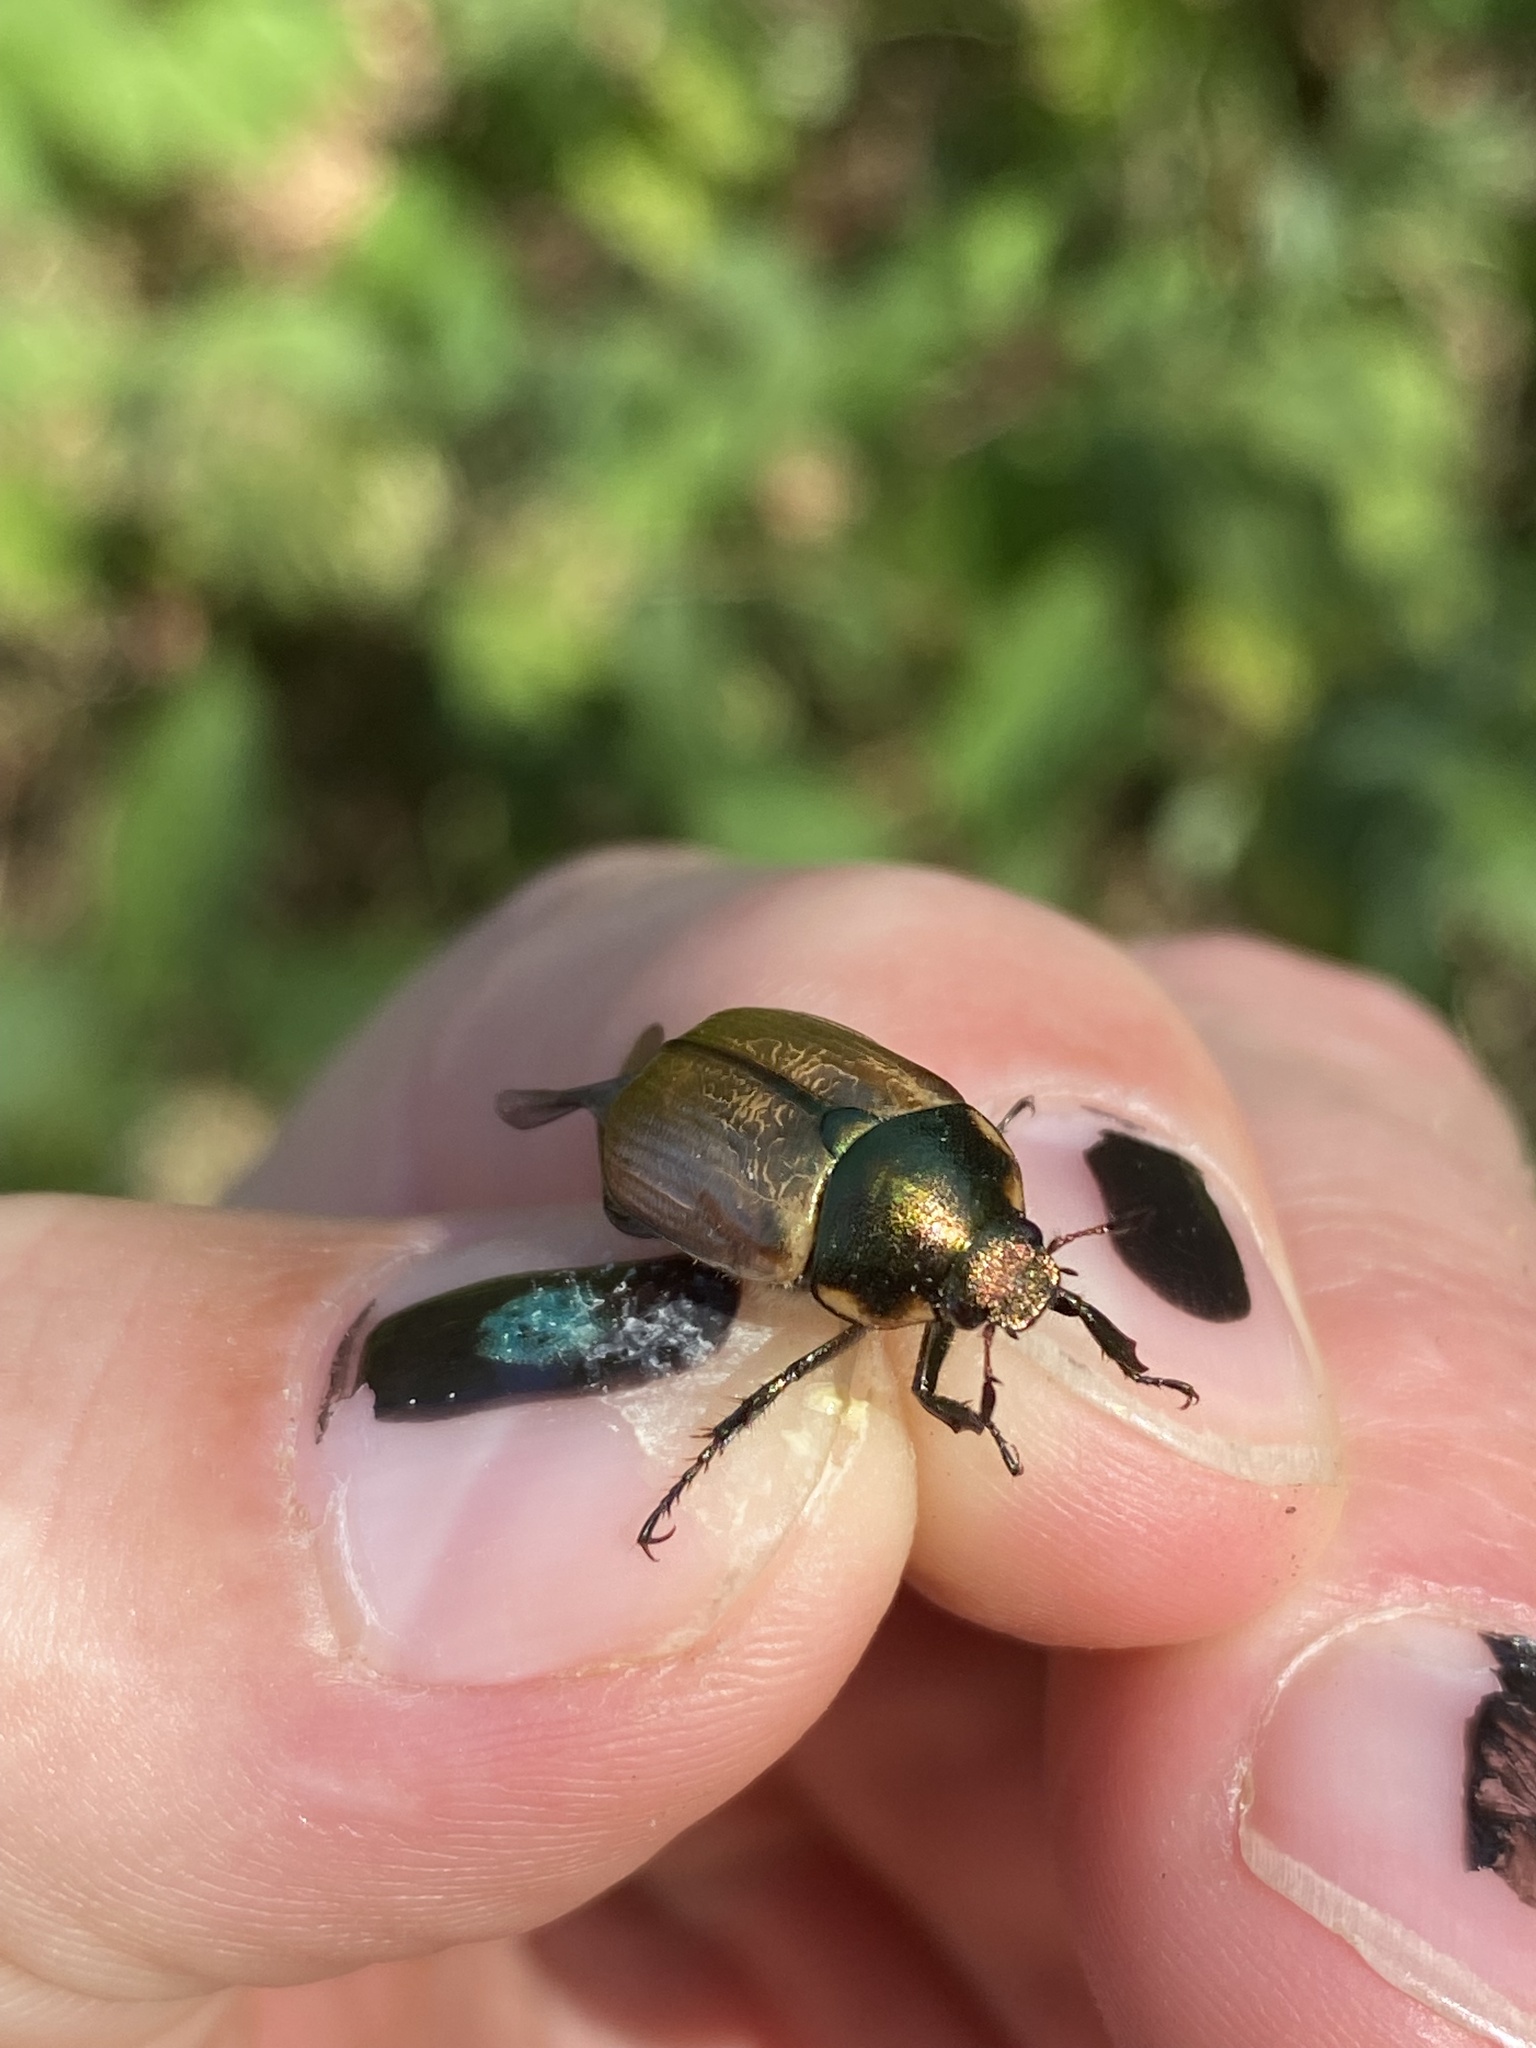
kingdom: Animalia
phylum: Arthropoda
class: Insecta
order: Coleoptera
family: Scarabaeidae
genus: Anomala
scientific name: Anomala dubia
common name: Dune chafer
